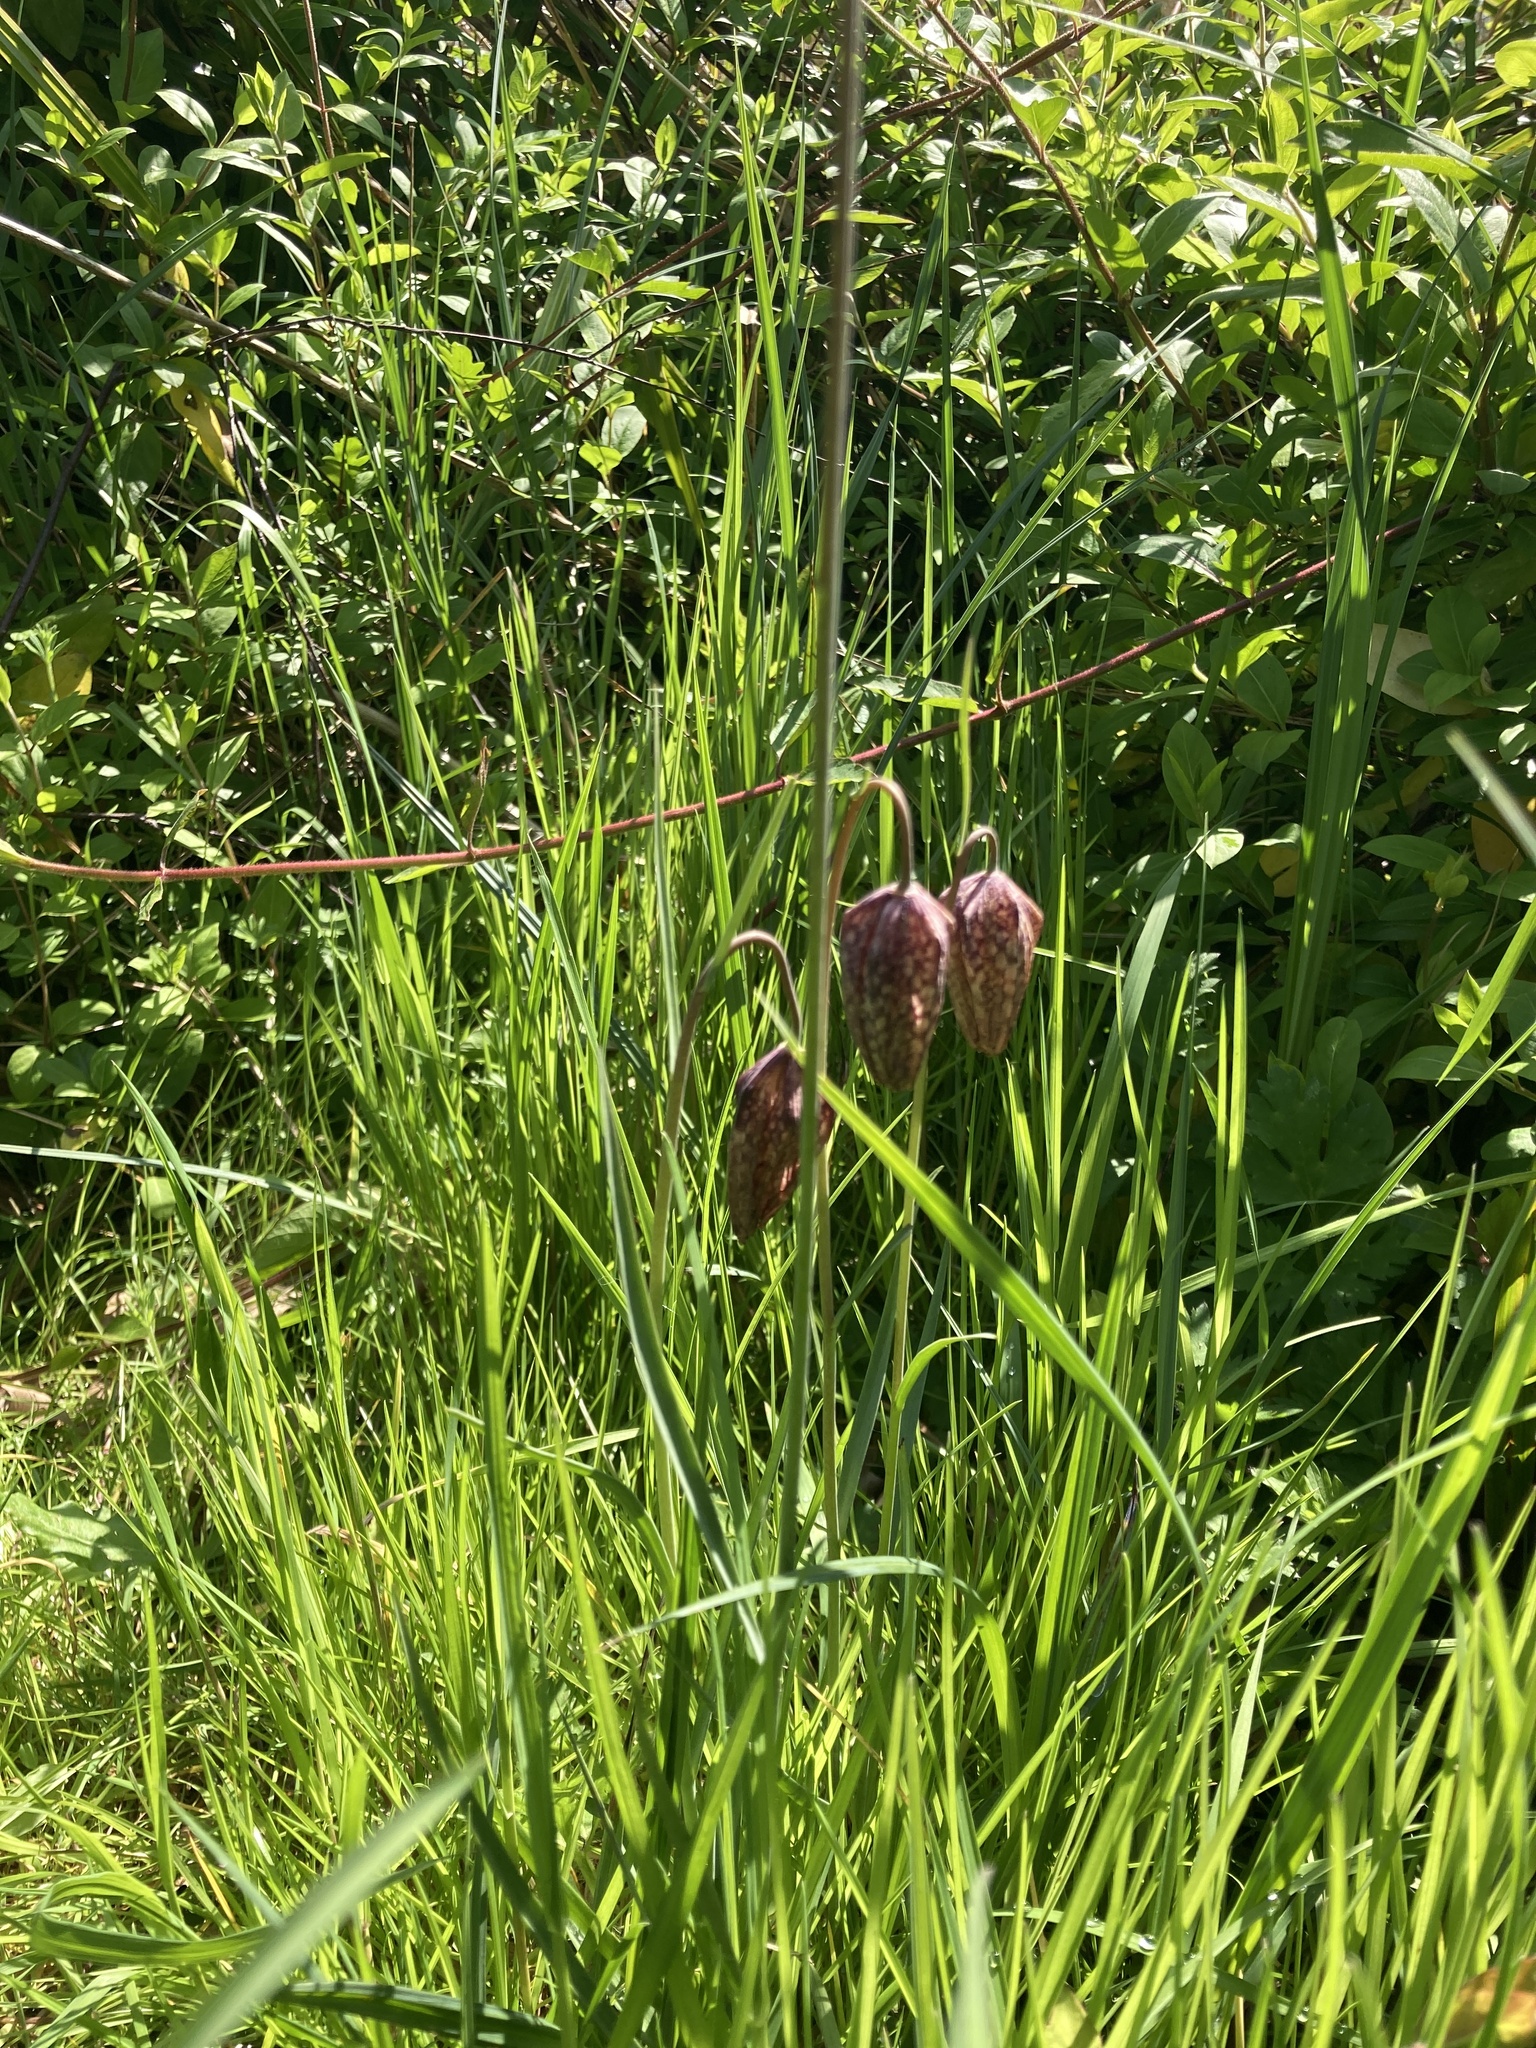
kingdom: Plantae
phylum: Tracheophyta
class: Liliopsida
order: Liliales
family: Liliaceae
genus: Fritillaria
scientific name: Fritillaria meleagris
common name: Fritillary
